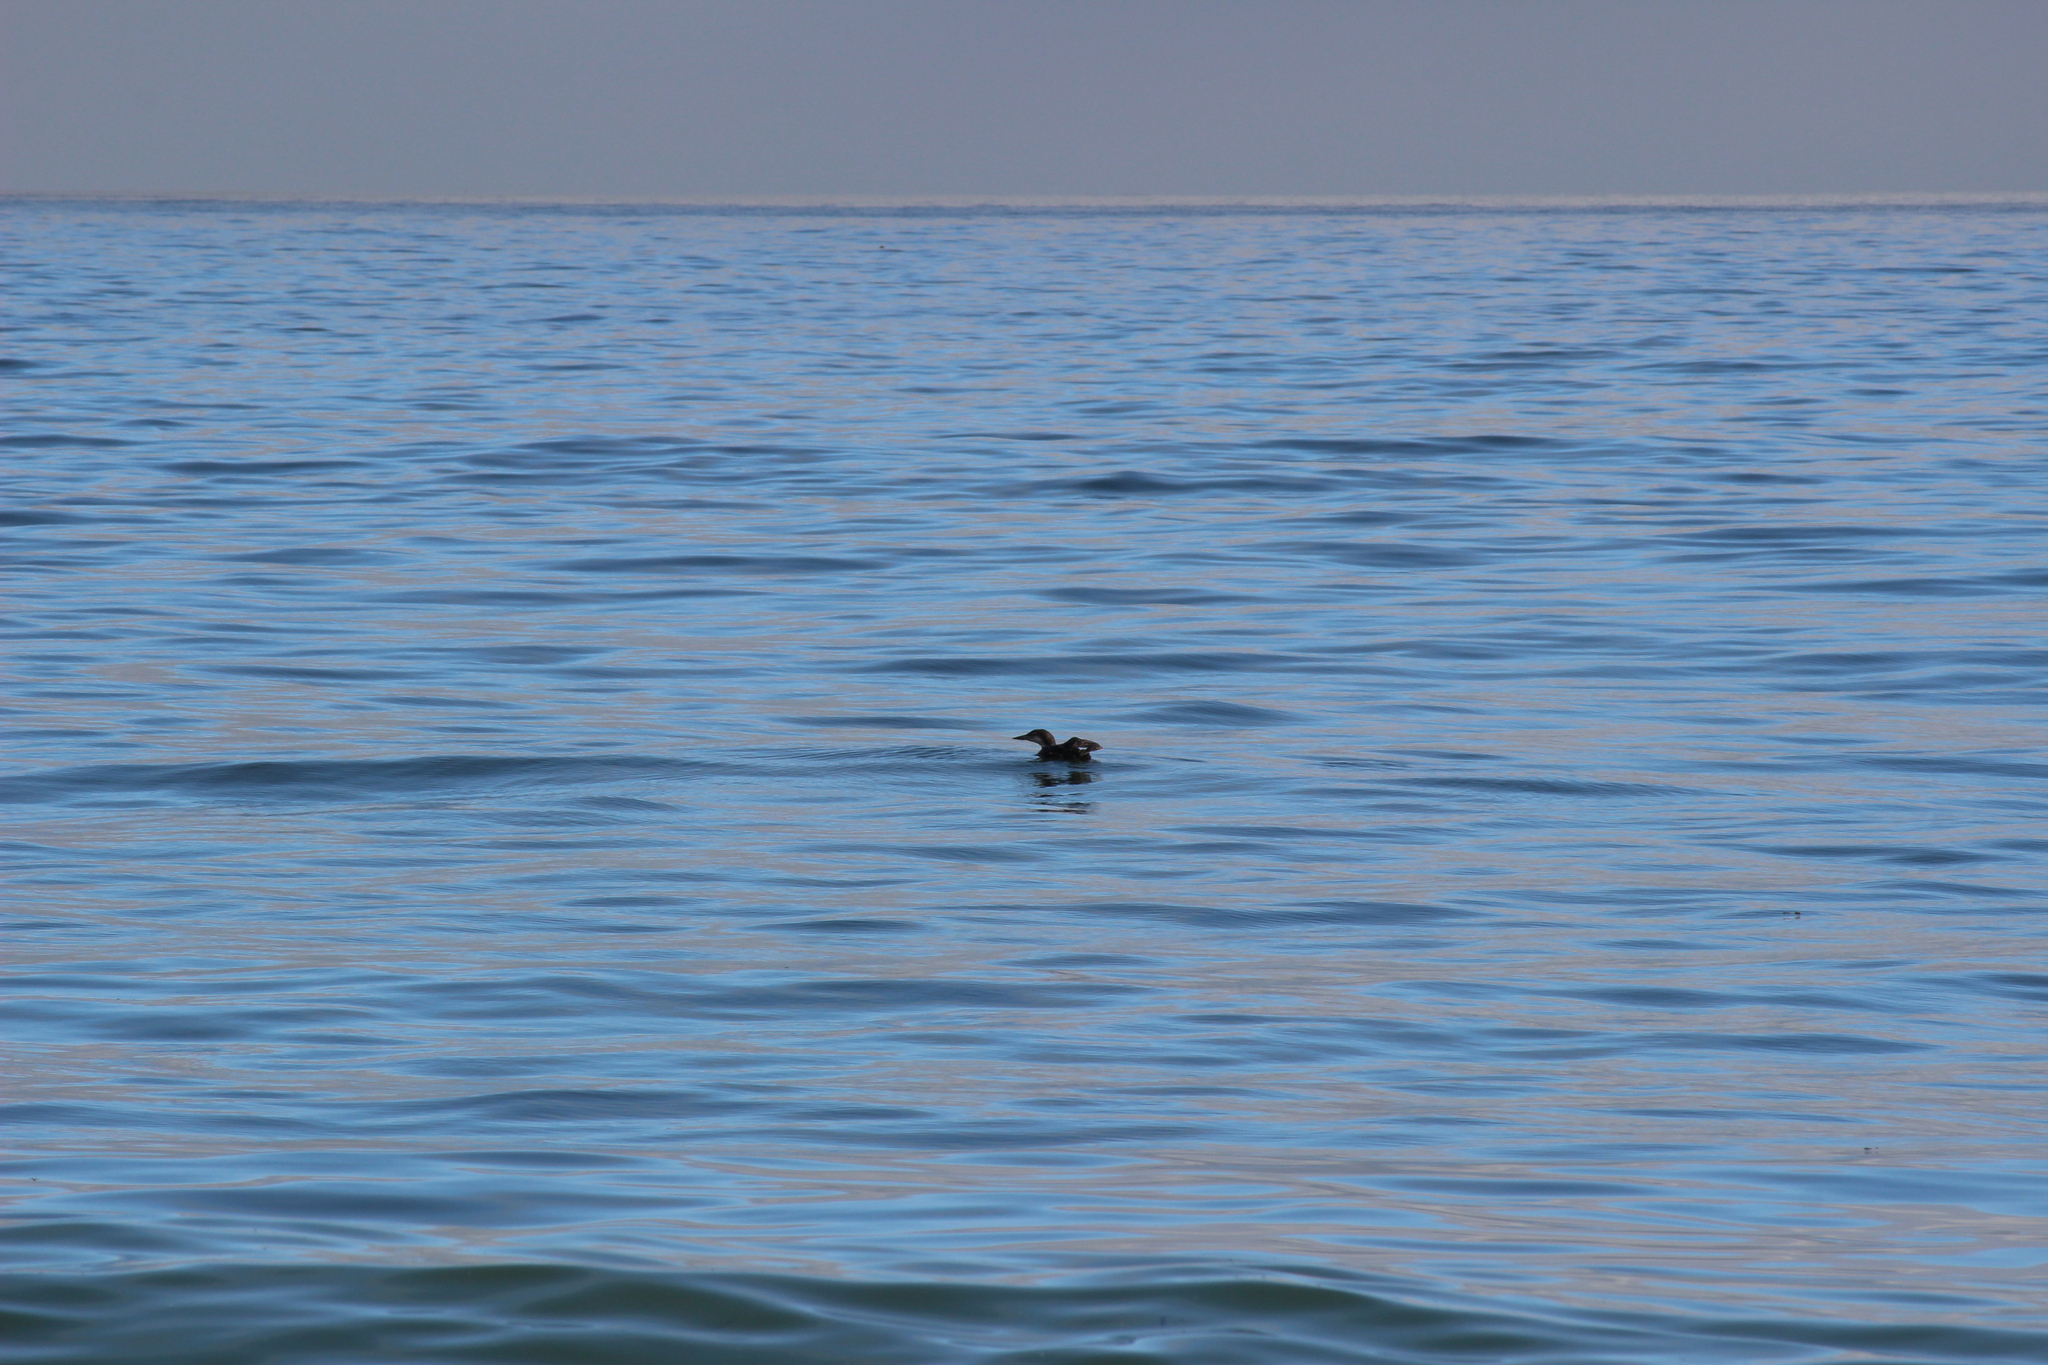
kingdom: Animalia
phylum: Chordata
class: Aves
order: Gaviiformes
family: Gaviidae
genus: Gavia
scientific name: Gavia immer
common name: Common loon
